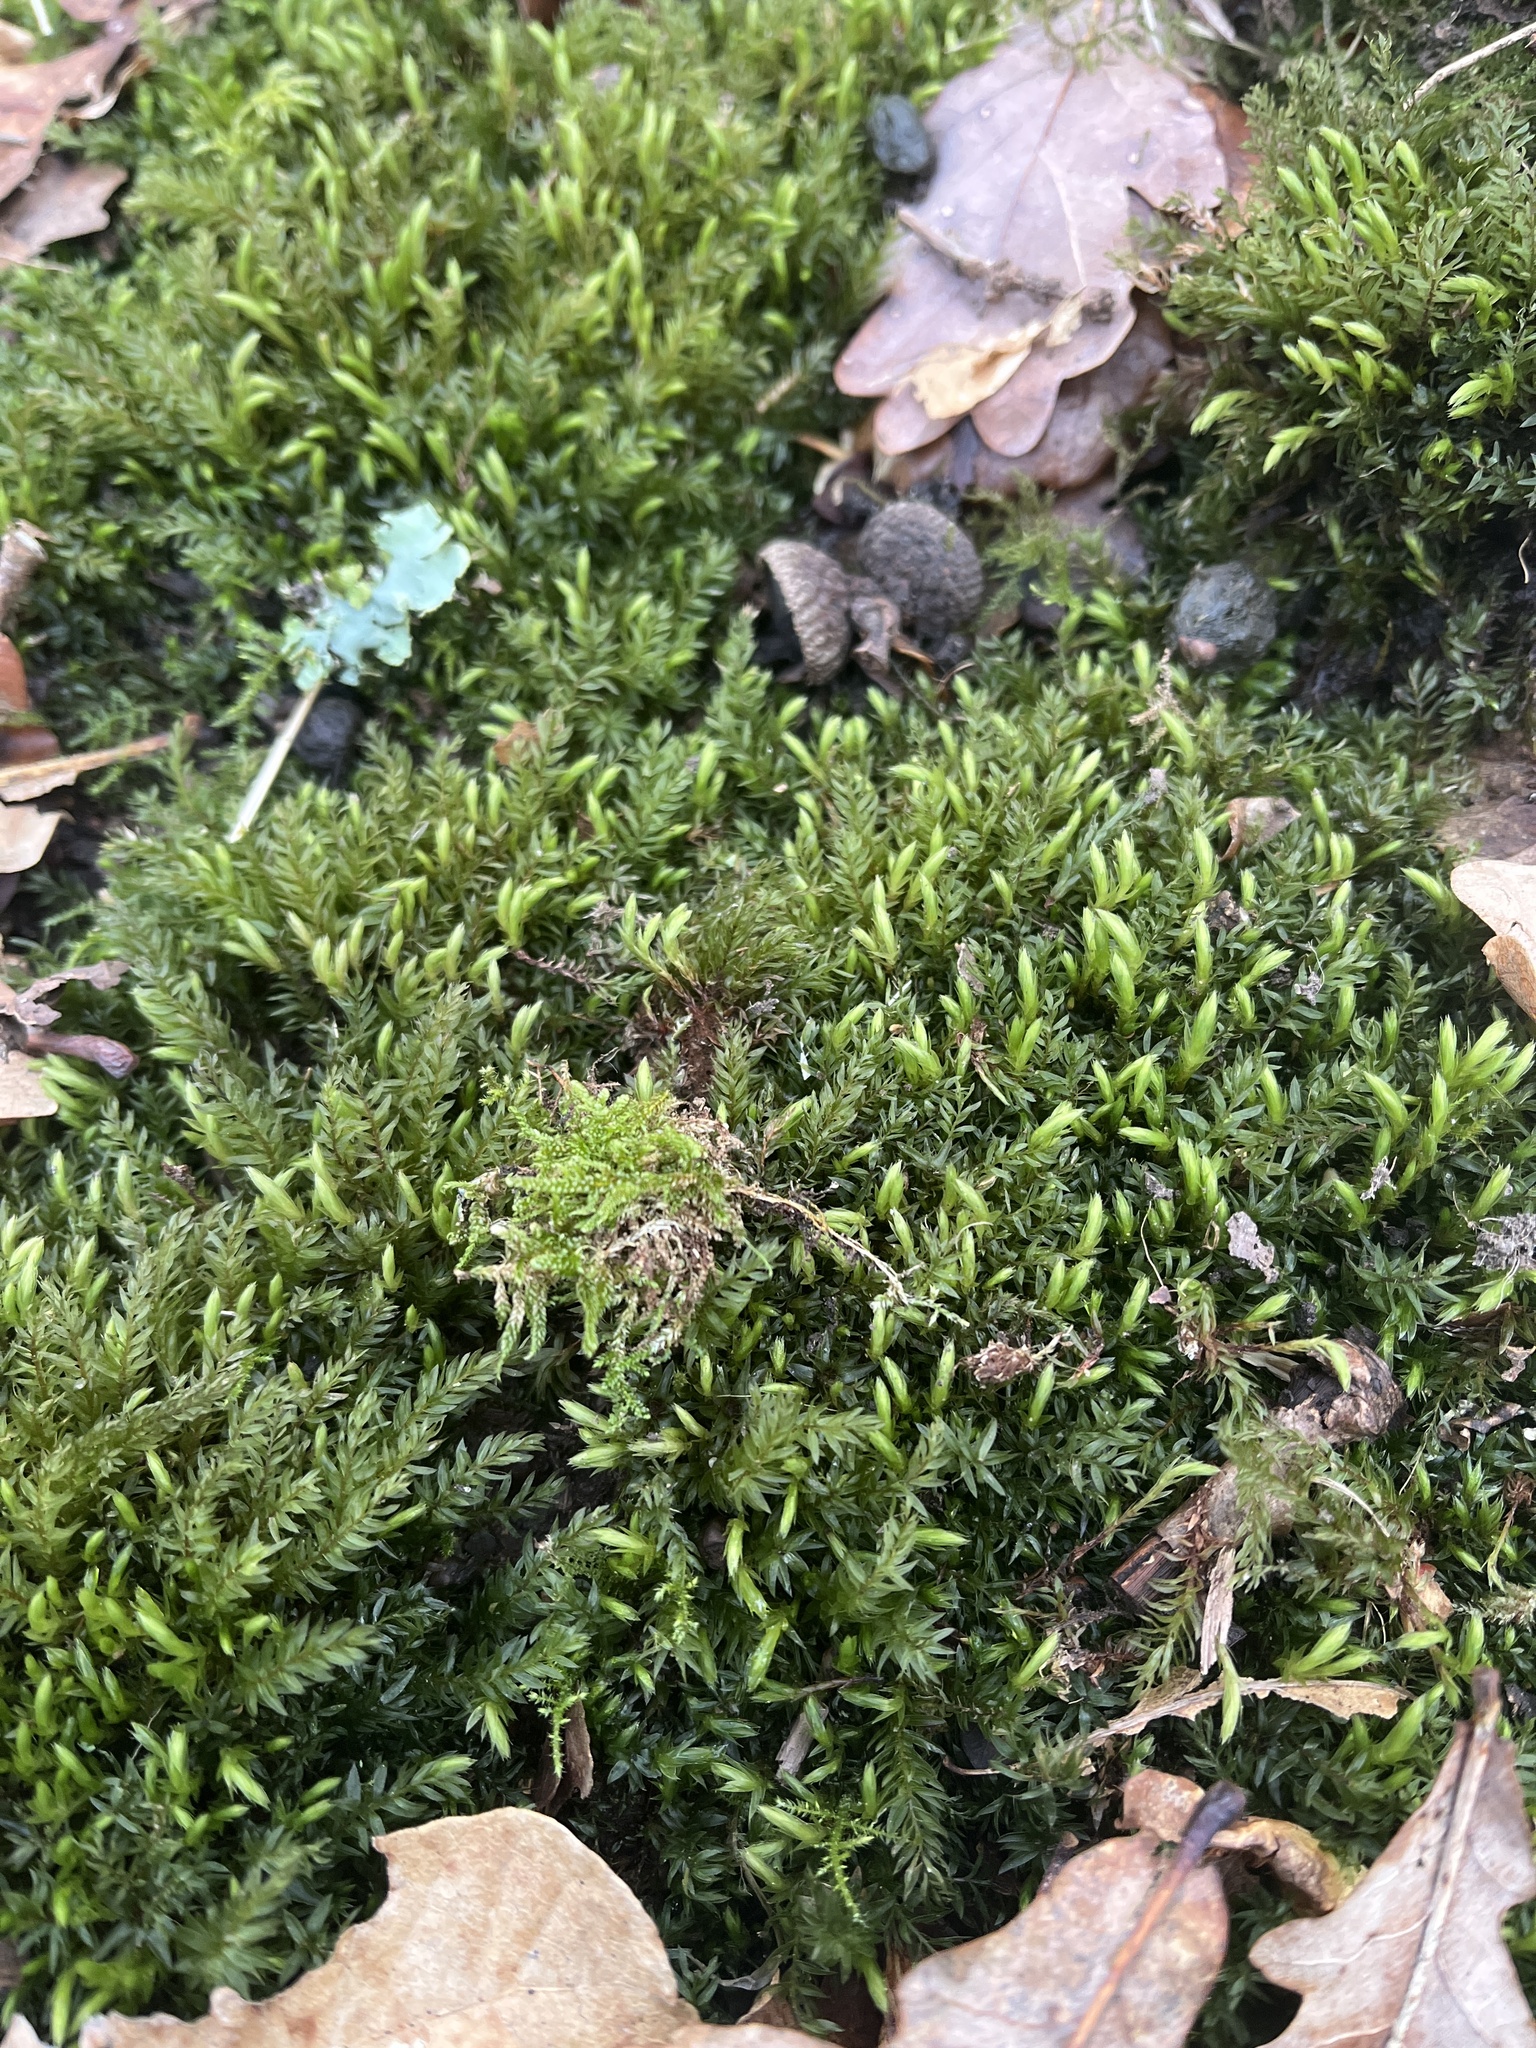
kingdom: Plantae
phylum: Bryophyta
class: Bryopsida
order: Bryales
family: Mniaceae
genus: Mnium
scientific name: Mnium hornum
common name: Swan's-neck leafy moss
